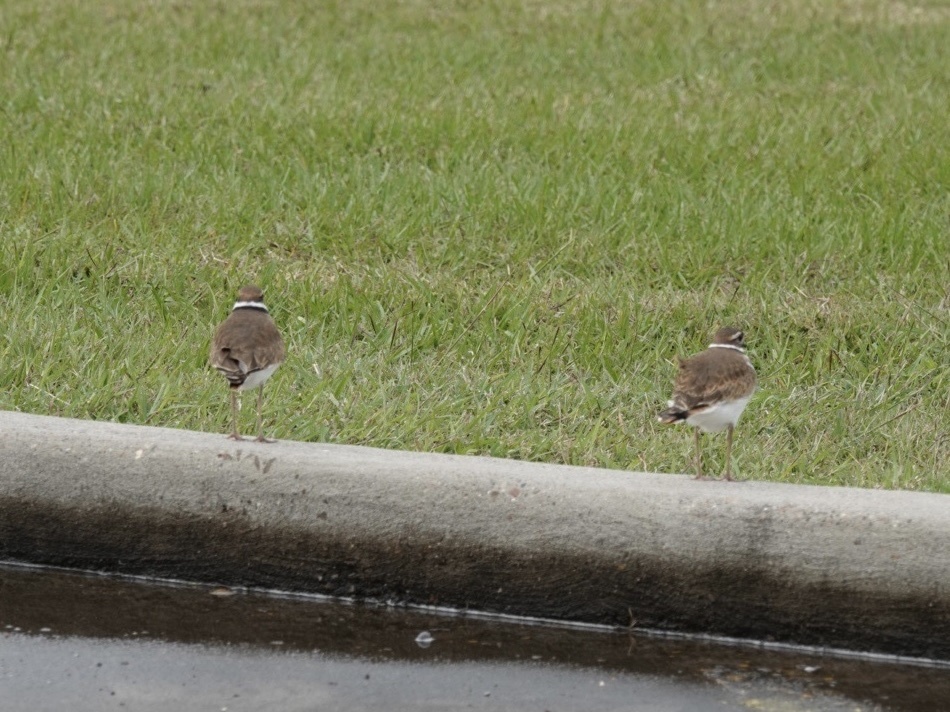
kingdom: Animalia
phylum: Chordata
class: Aves
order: Charadriiformes
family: Charadriidae
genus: Charadrius
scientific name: Charadrius vociferus
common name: Killdeer
